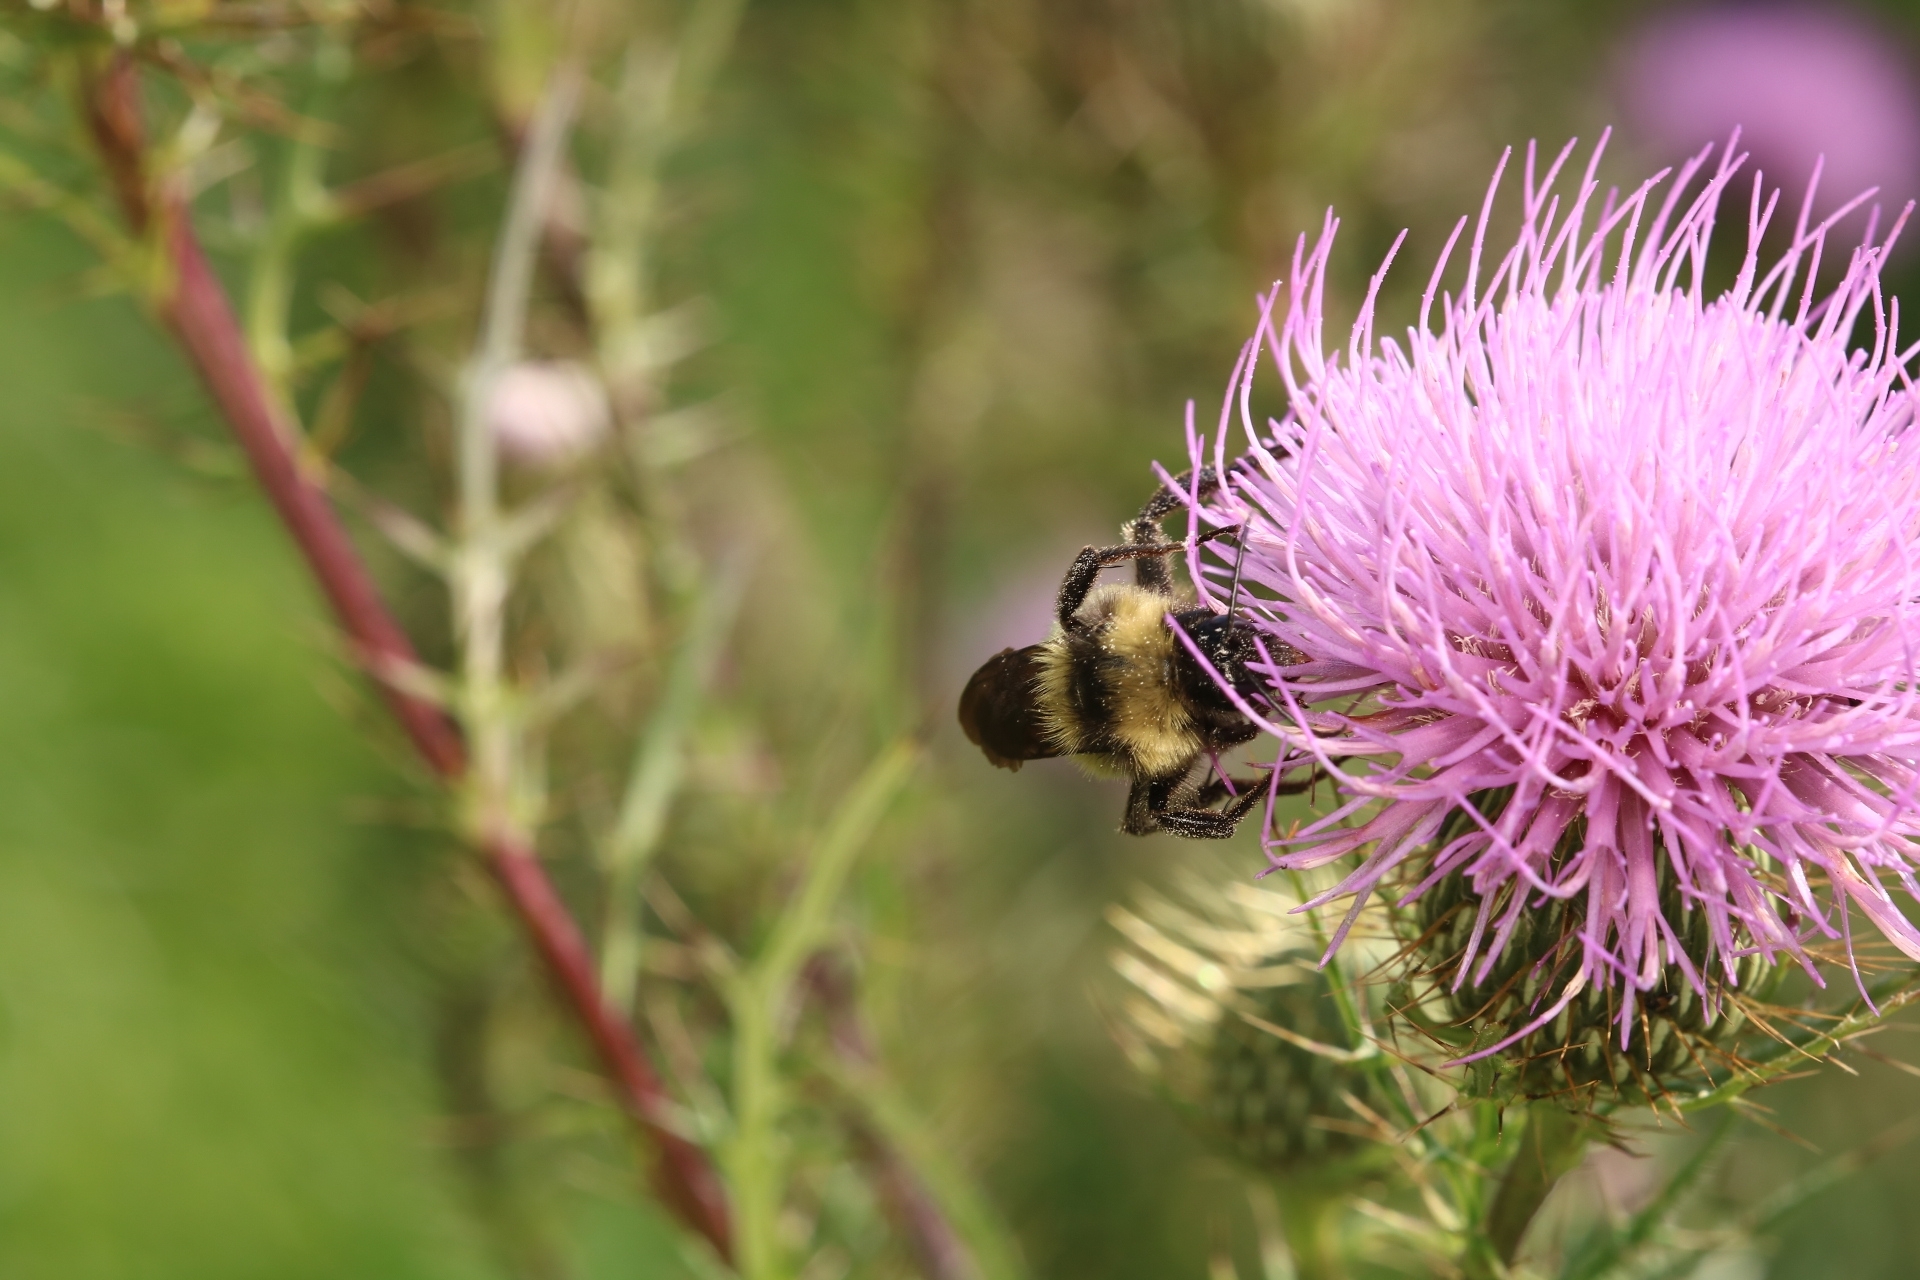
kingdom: Animalia
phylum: Arthropoda
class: Insecta
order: Hymenoptera
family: Apidae
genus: Bombus
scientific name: Bombus pensylvanicus
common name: Bumble bee
